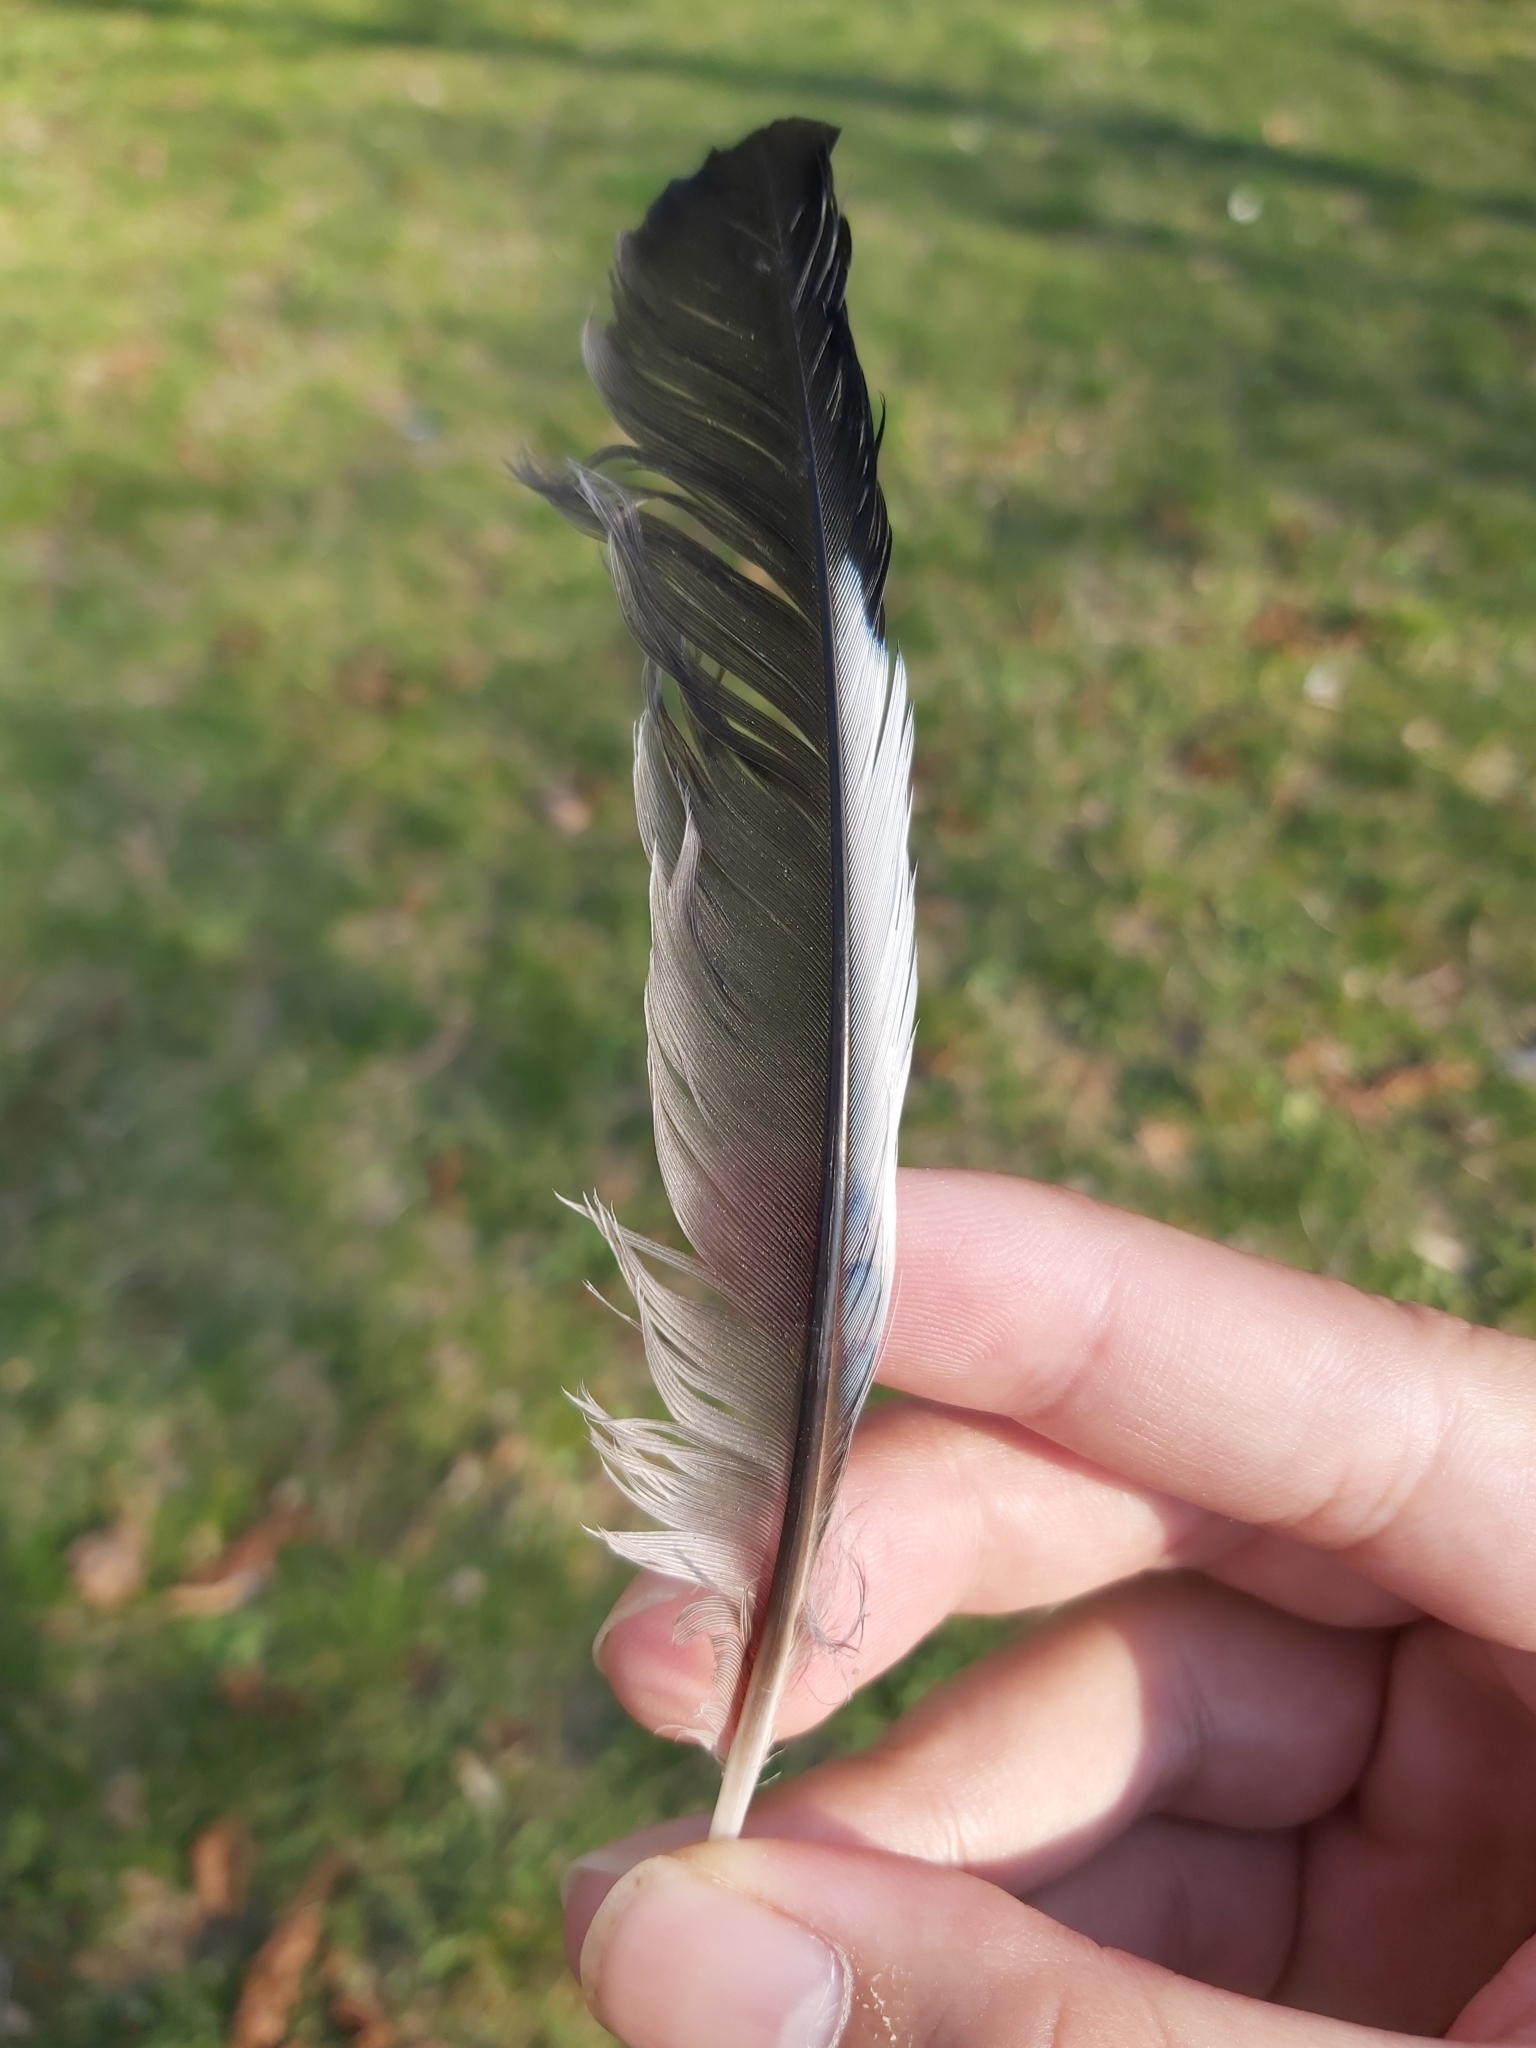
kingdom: Animalia
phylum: Chordata
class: Aves
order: Passeriformes
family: Corvidae
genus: Garrulus
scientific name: Garrulus glandarius
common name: Eurasian jay
